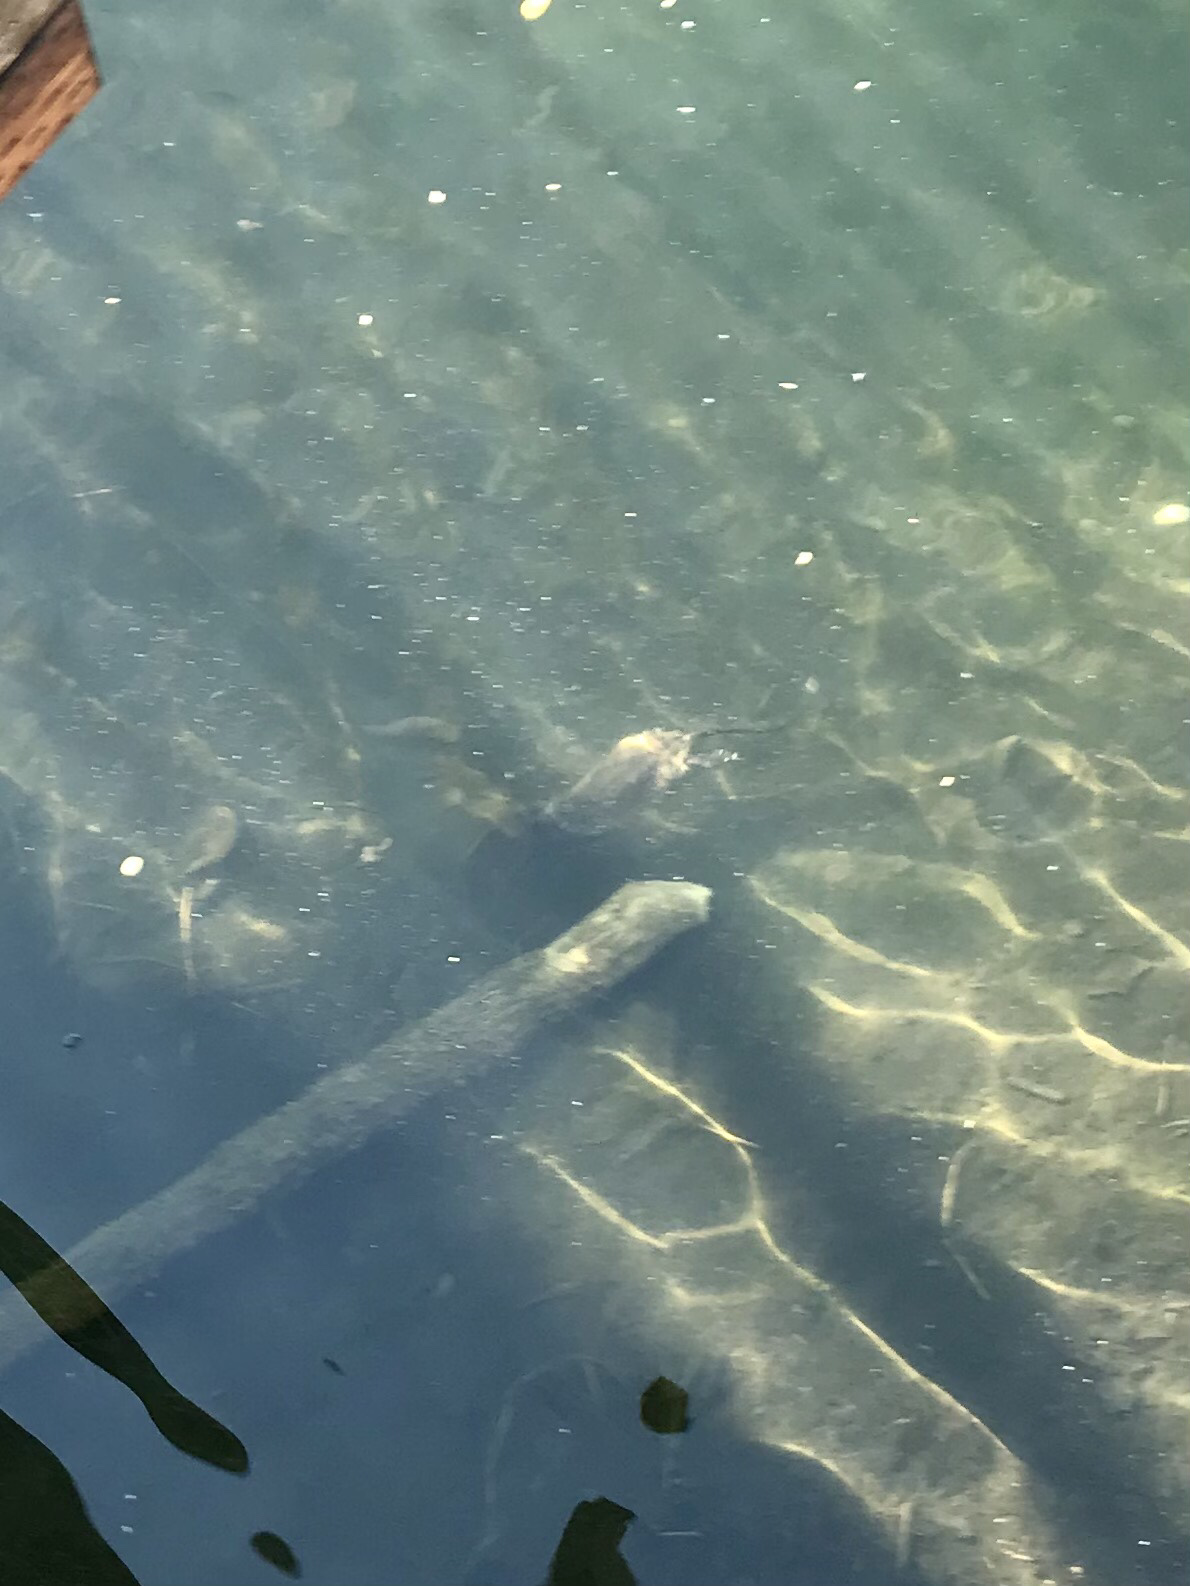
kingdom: Animalia
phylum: Chordata
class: Mammalia
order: Rodentia
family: Cricetidae
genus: Ondatra
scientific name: Ondatra zibethicus
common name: Muskrat
